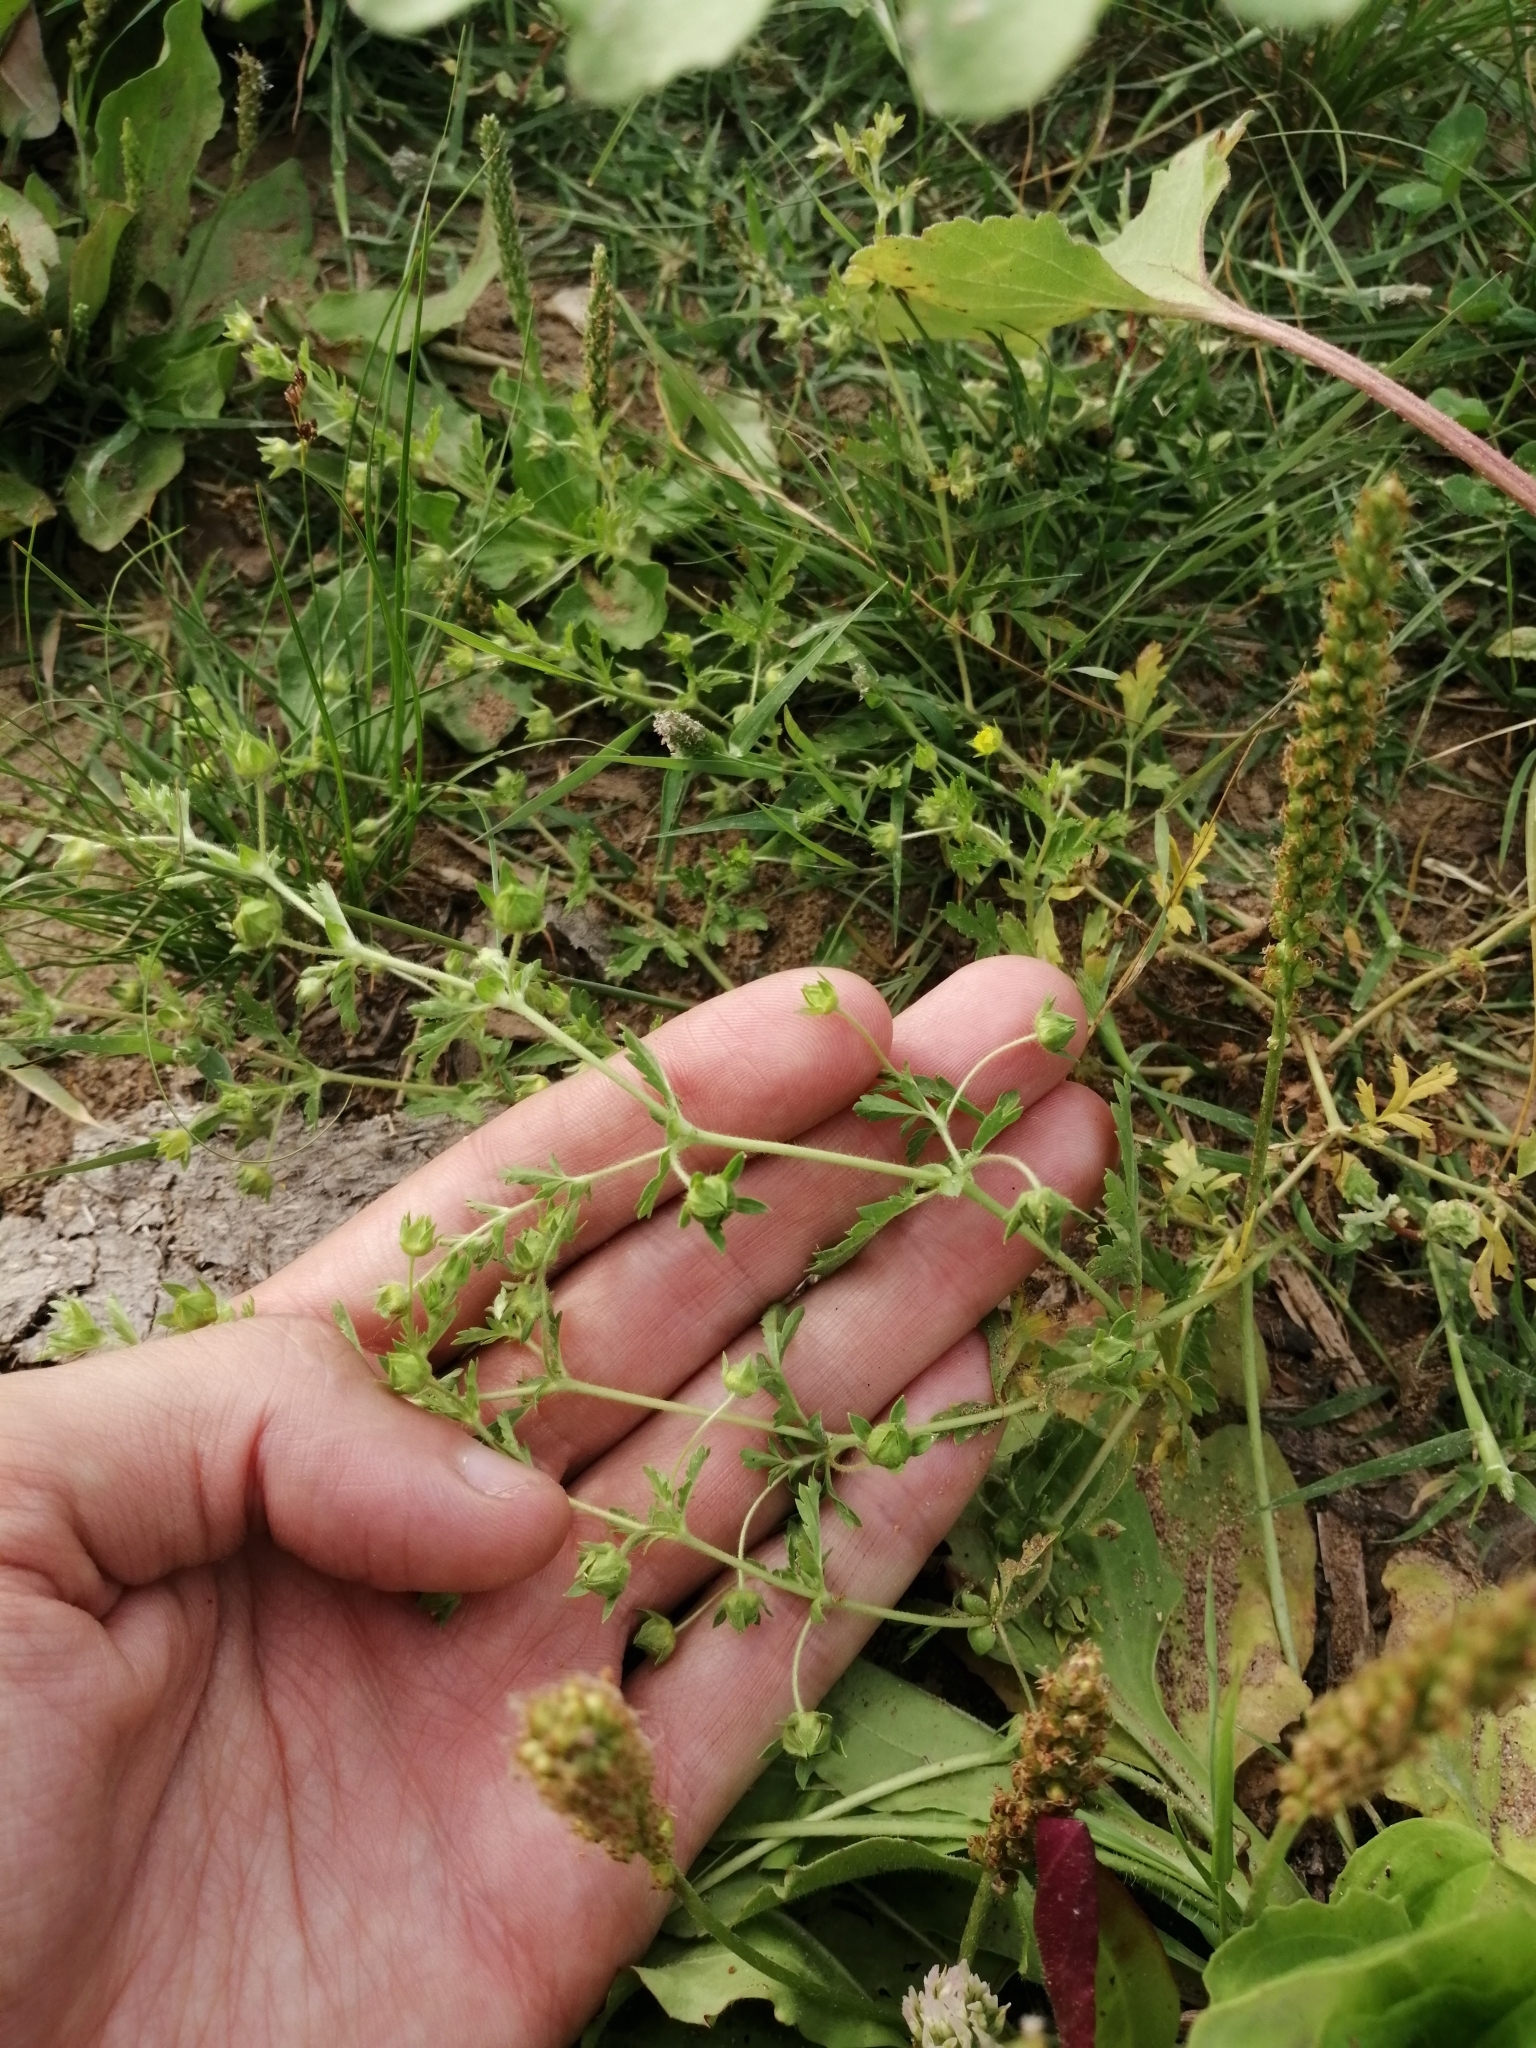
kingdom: Plantae
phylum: Tracheophyta
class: Magnoliopsida
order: Rosales
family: Rosaceae
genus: Potentilla
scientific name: Potentilla supina
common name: Prostrate cinquefoil
